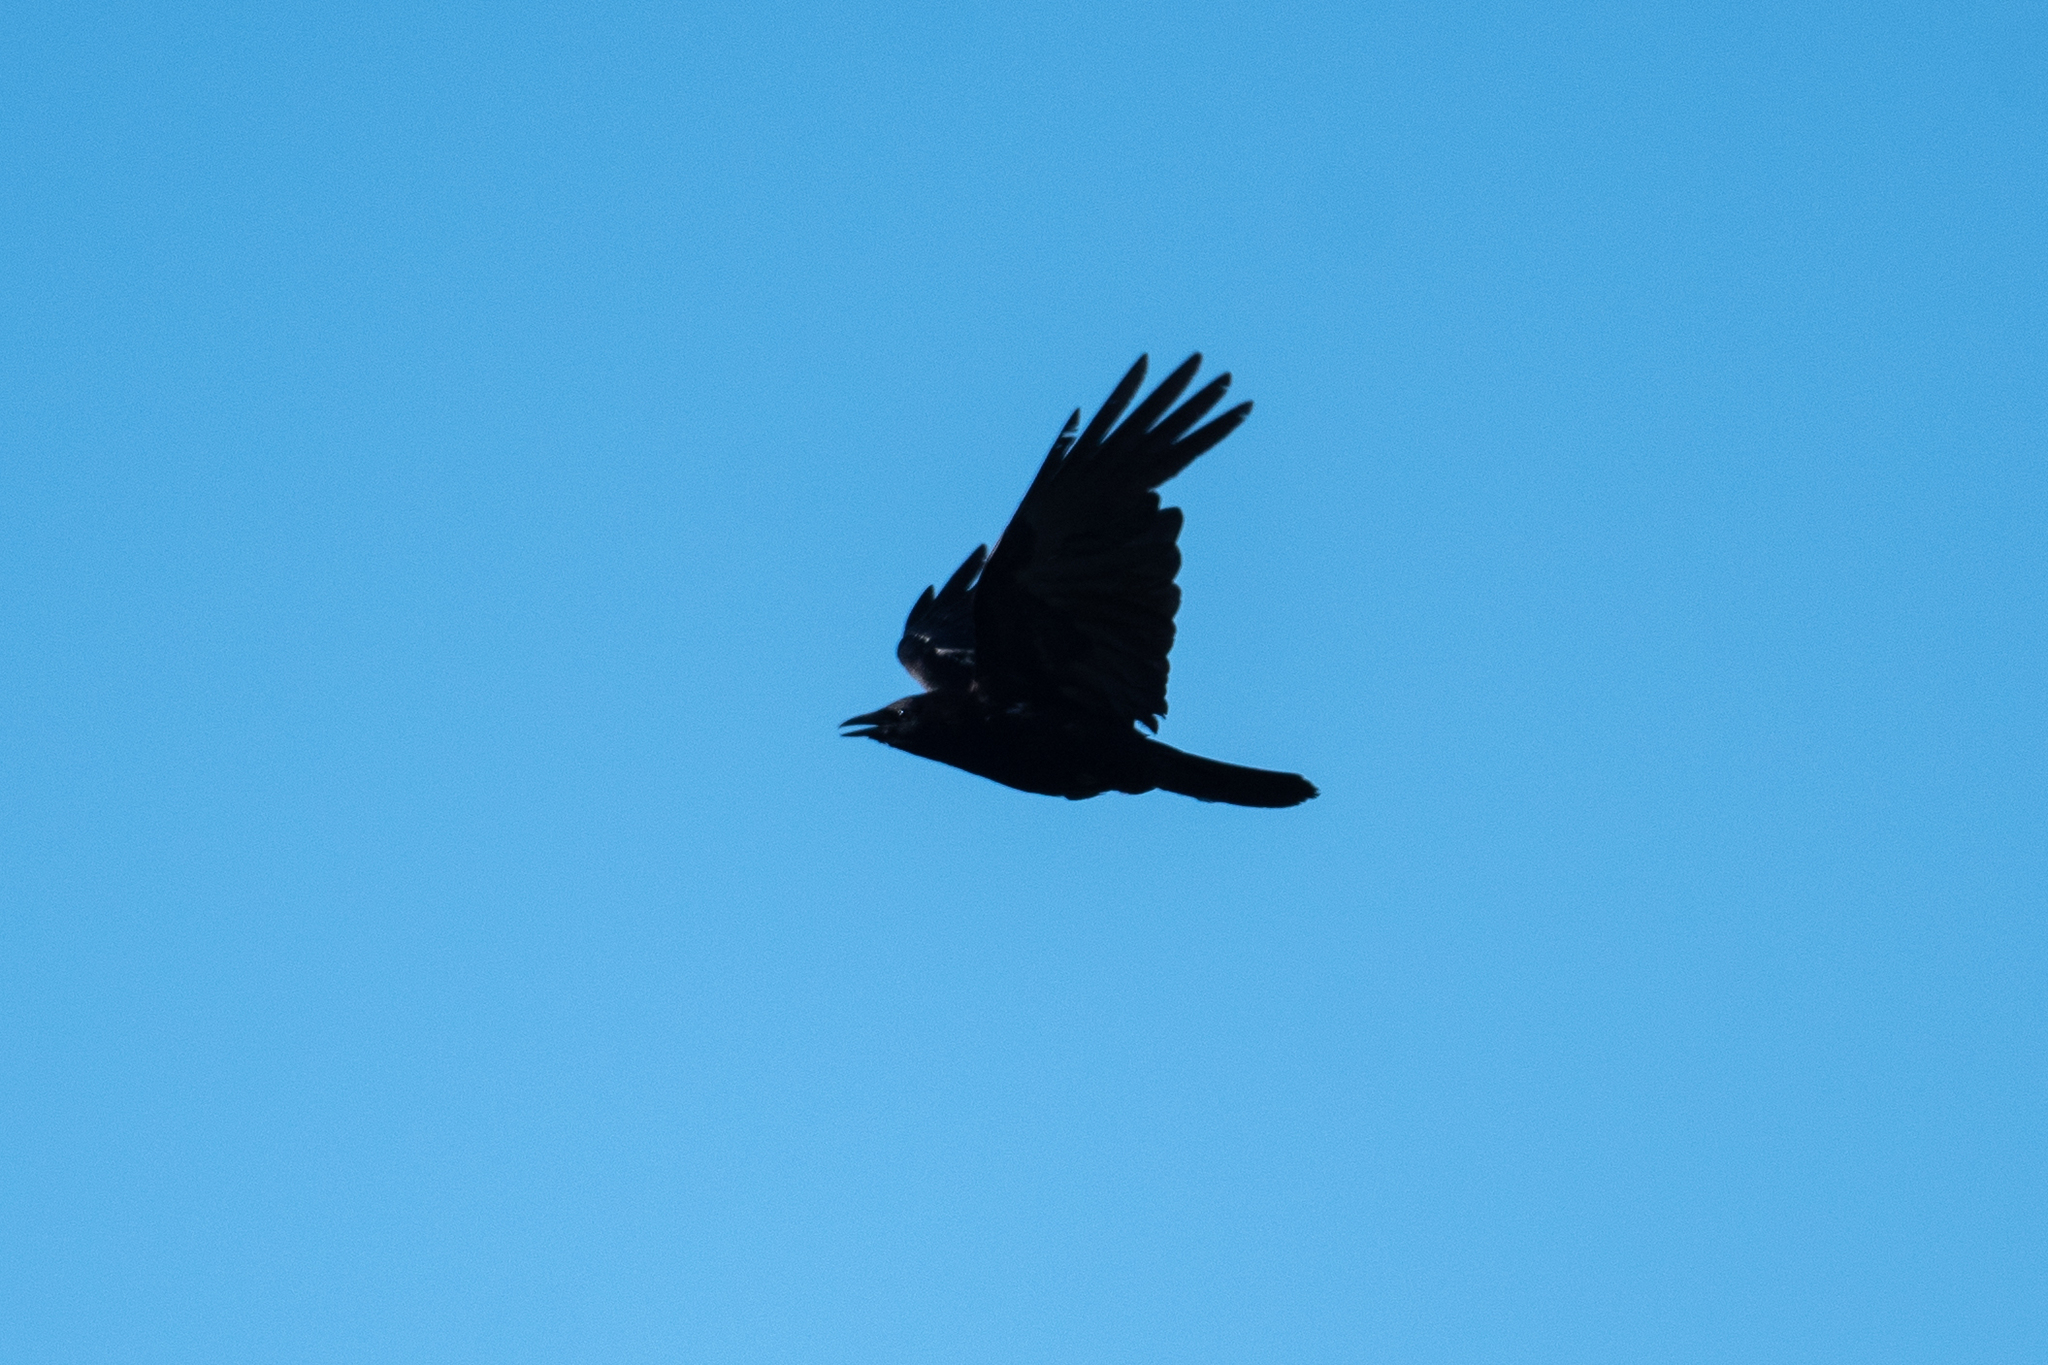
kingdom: Animalia
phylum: Chordata
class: Aves
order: Passeriformes
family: Corvidae
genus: Corvus
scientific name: Corvus corax
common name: Common raven
